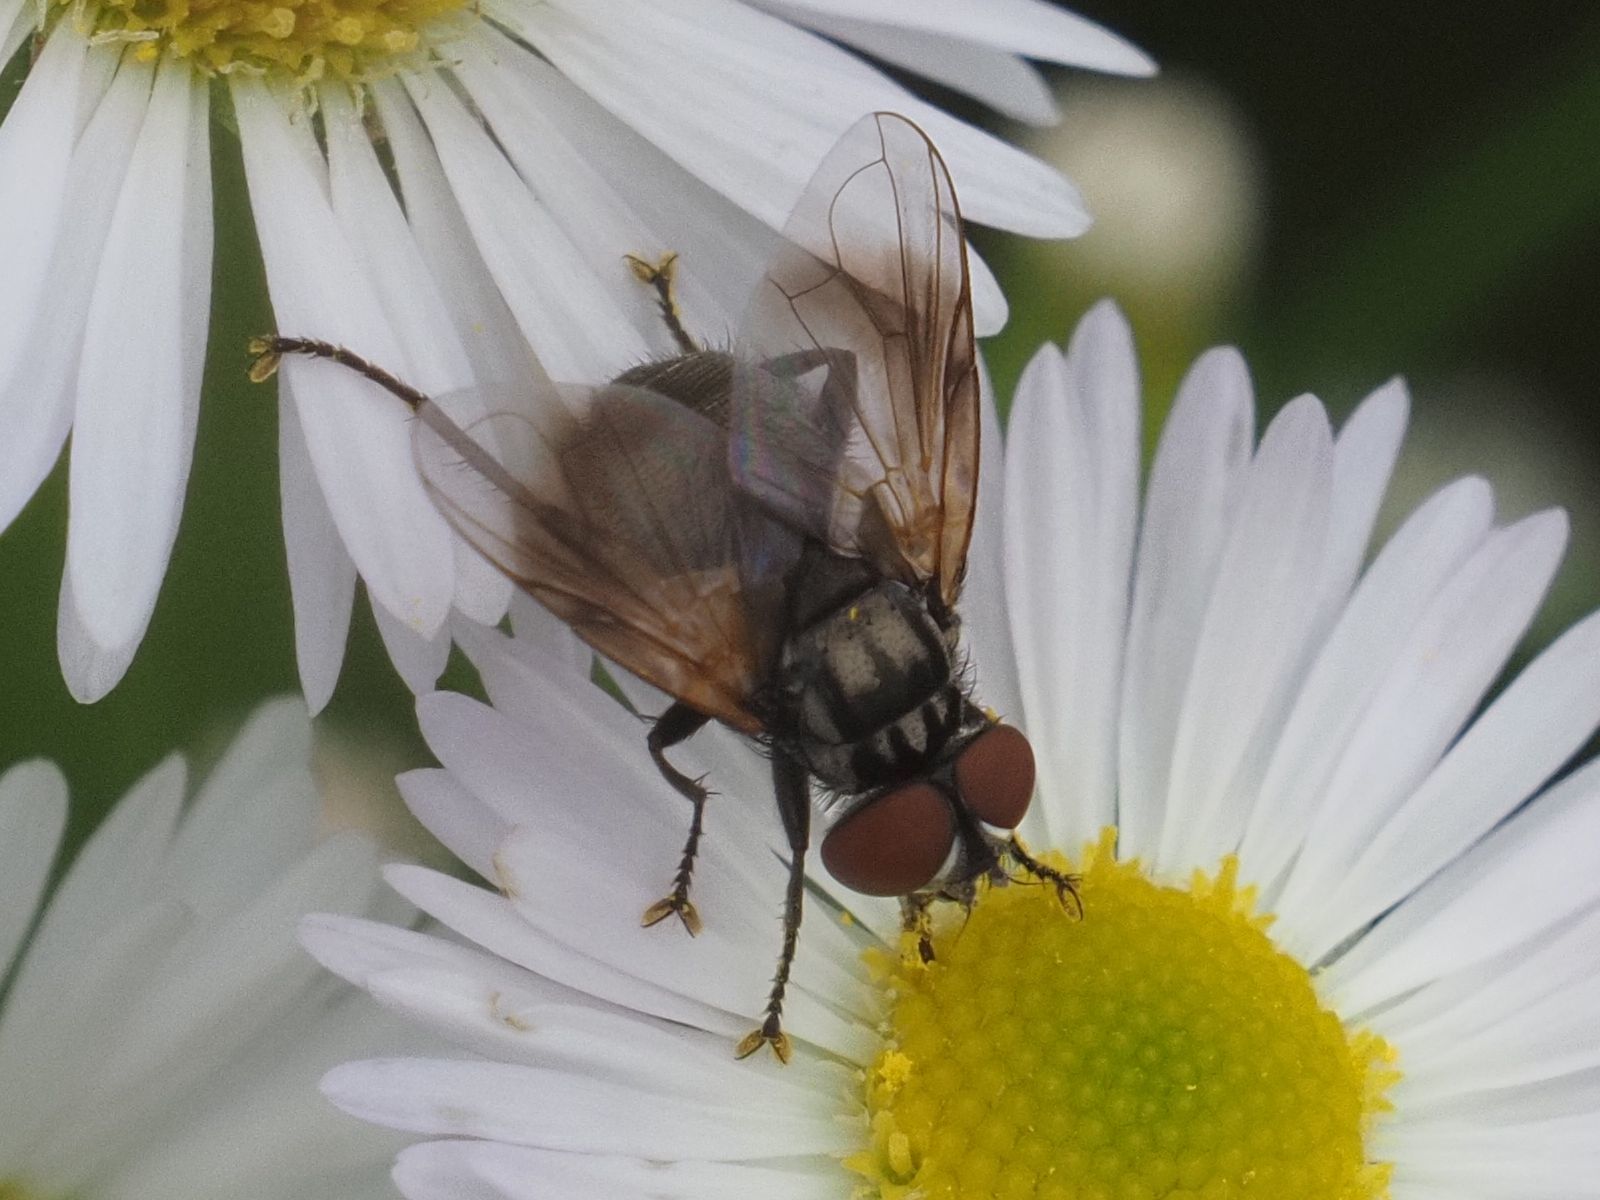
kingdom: Animalia
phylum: Arthropoda
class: Insecta
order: Diptera
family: Tachinidae
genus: Phasia
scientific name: Phasia obesa
